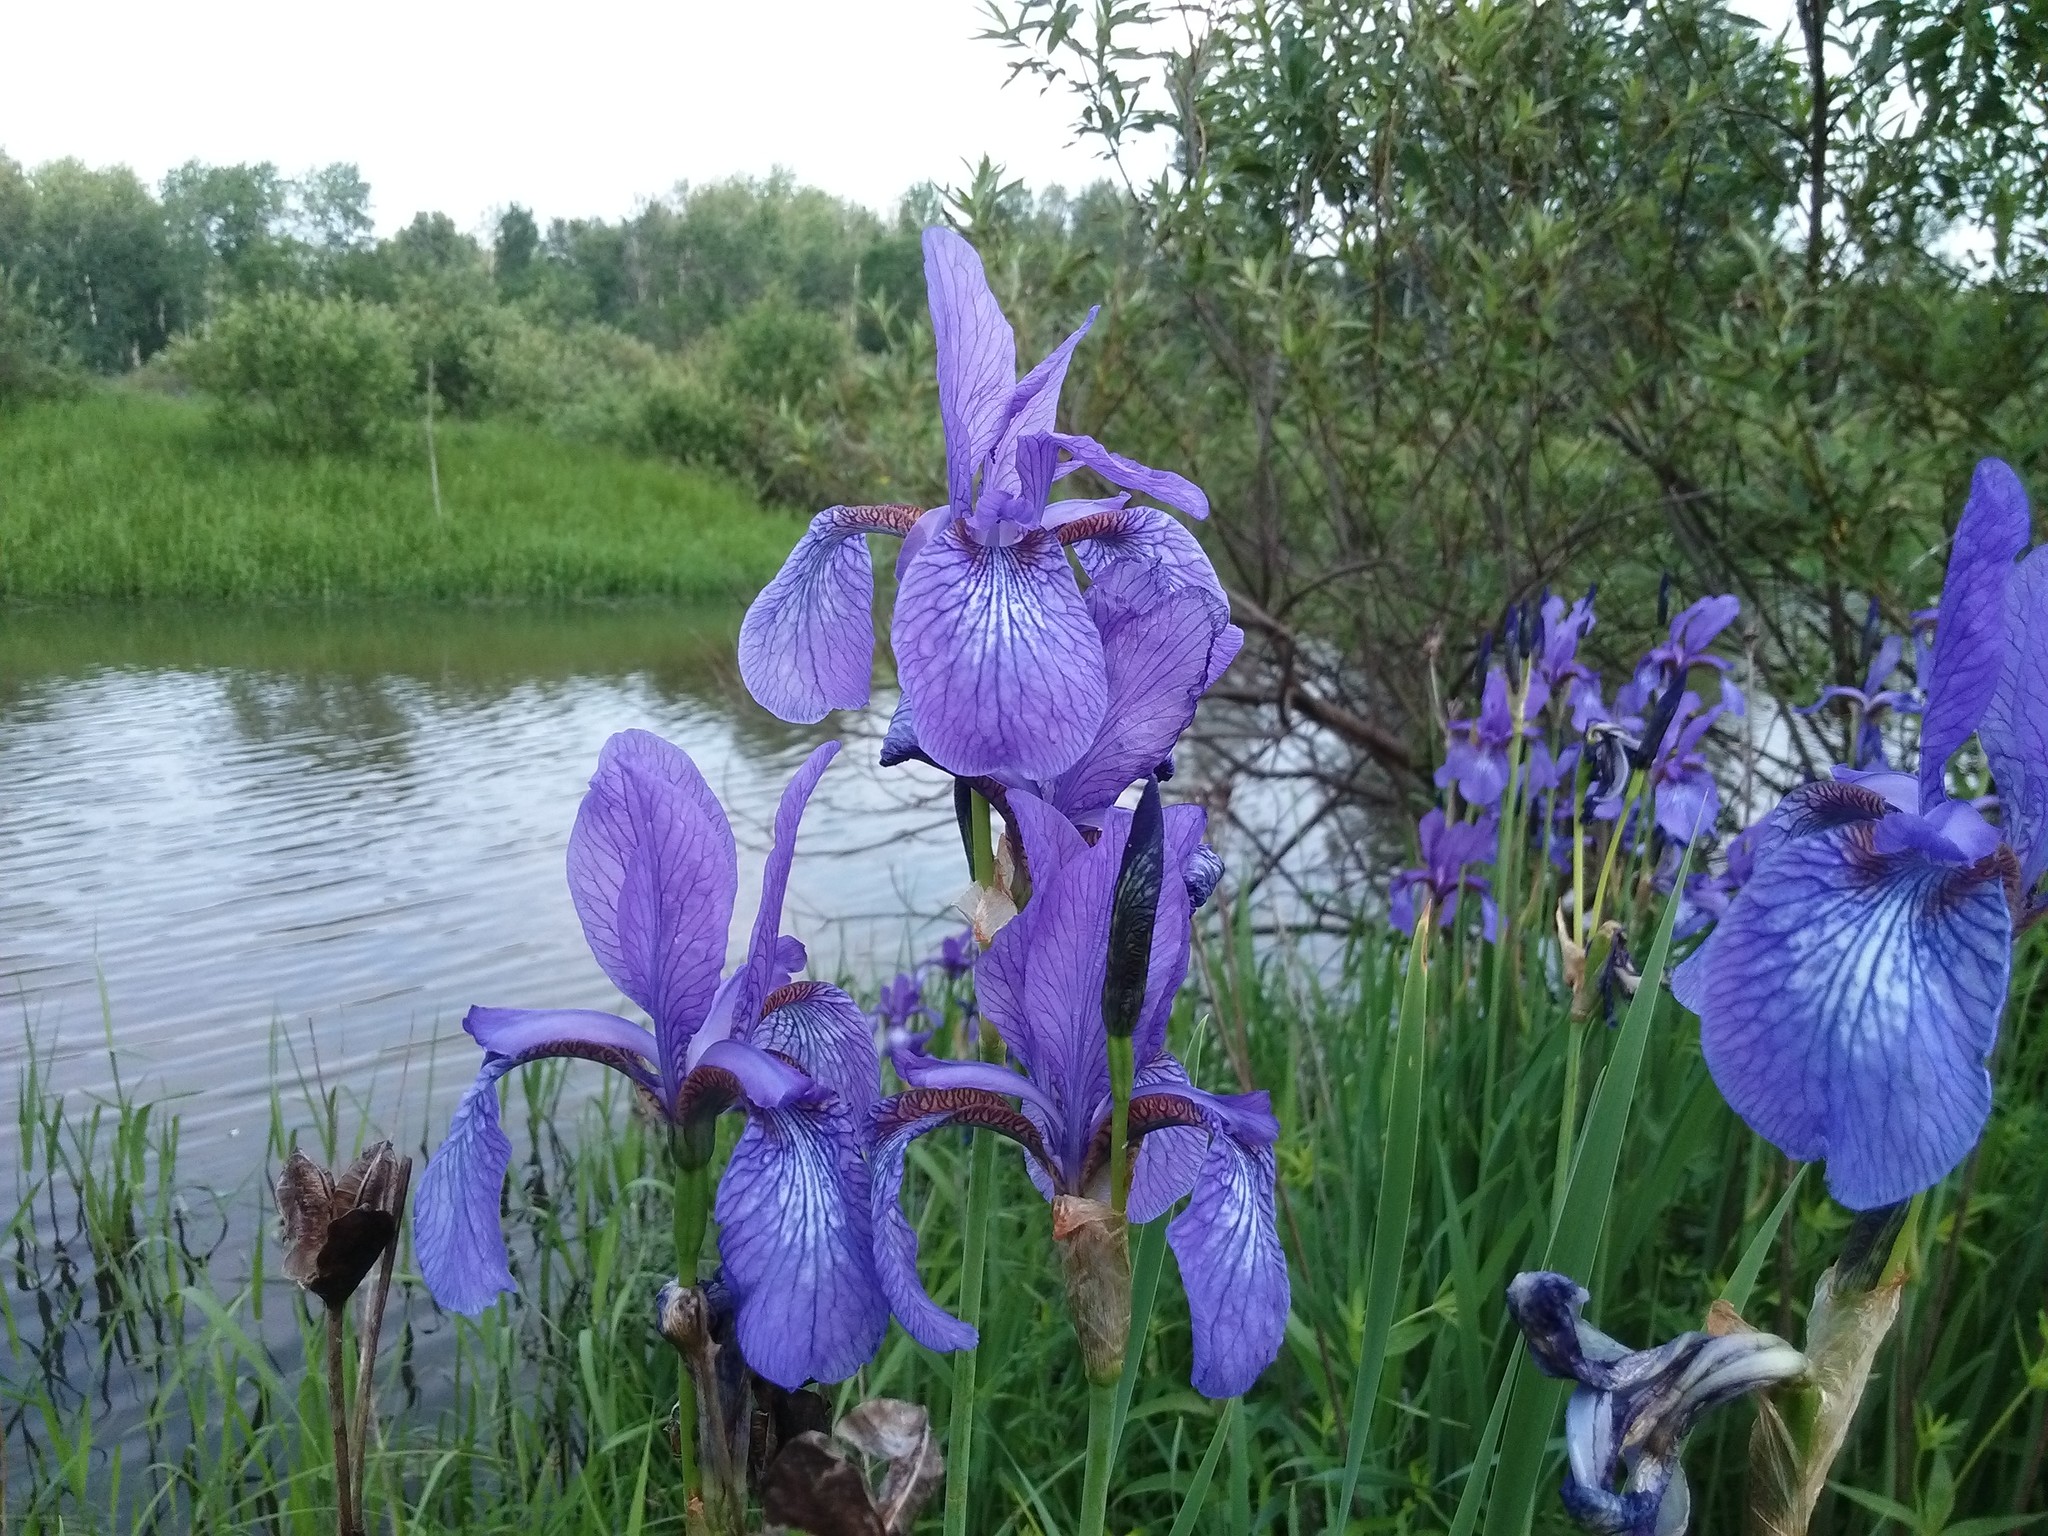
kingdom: Plantae
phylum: Tracheophyta
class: Liliopsida
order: Asparagales
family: Iridaceae
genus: Iris
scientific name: Iris sibirica
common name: Siberian iris
